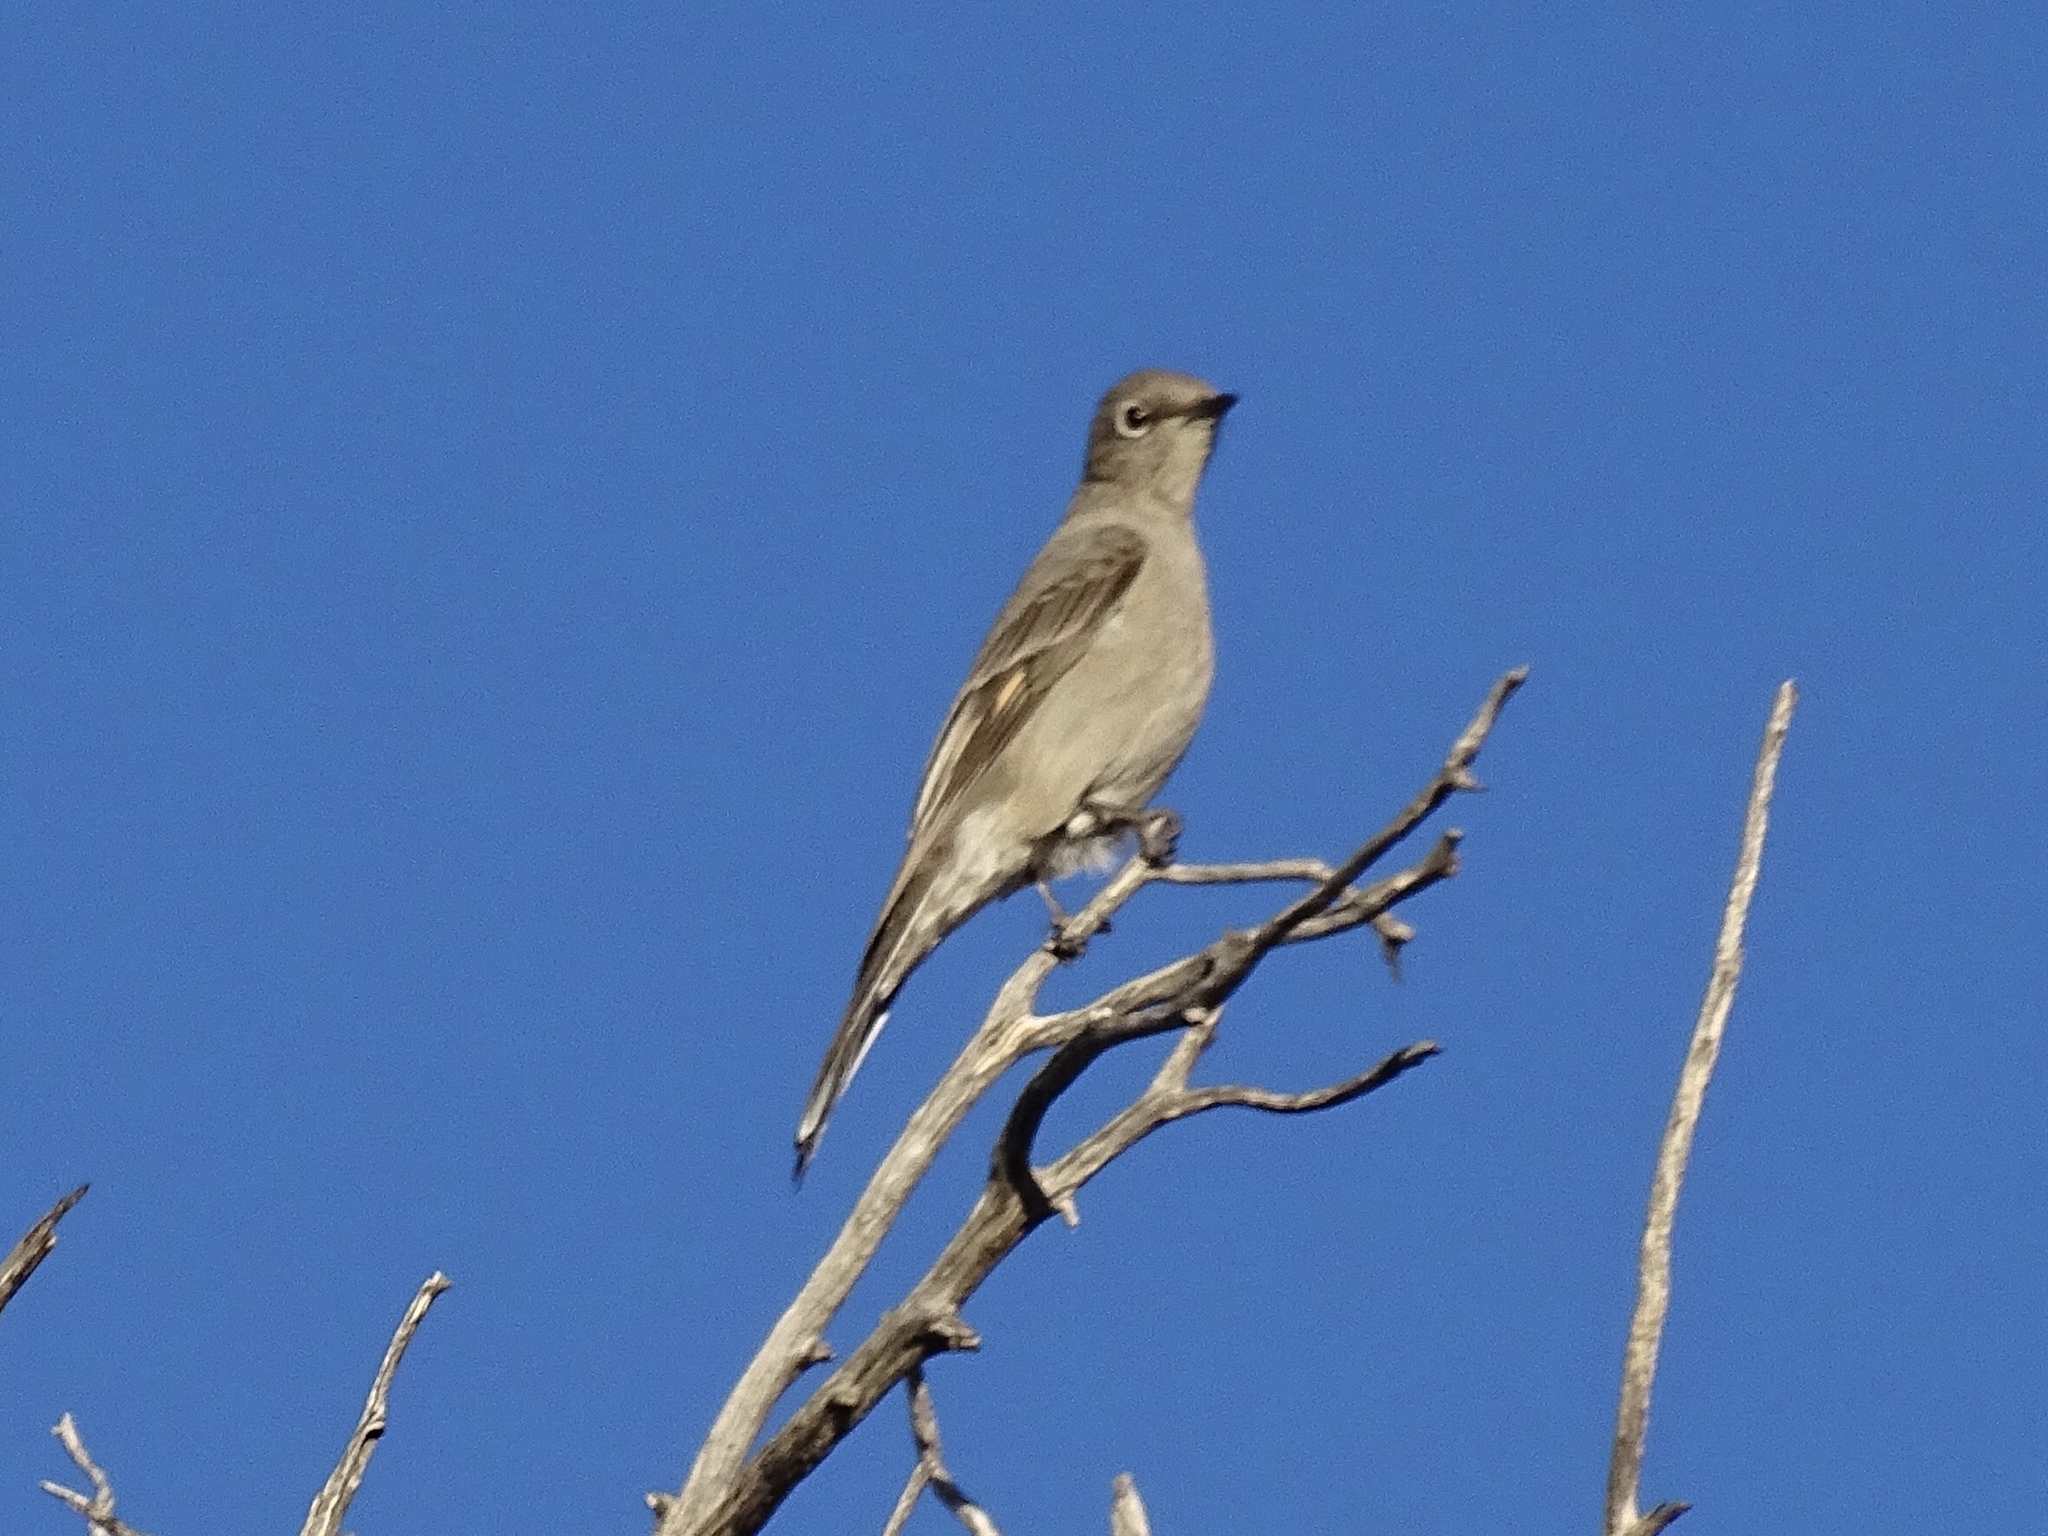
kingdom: Animalia
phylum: Chordata
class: Aves
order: Passeriformes
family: Turdidae
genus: Myadestes
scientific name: Myadestes townsendi
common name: Townsend's solitaire
